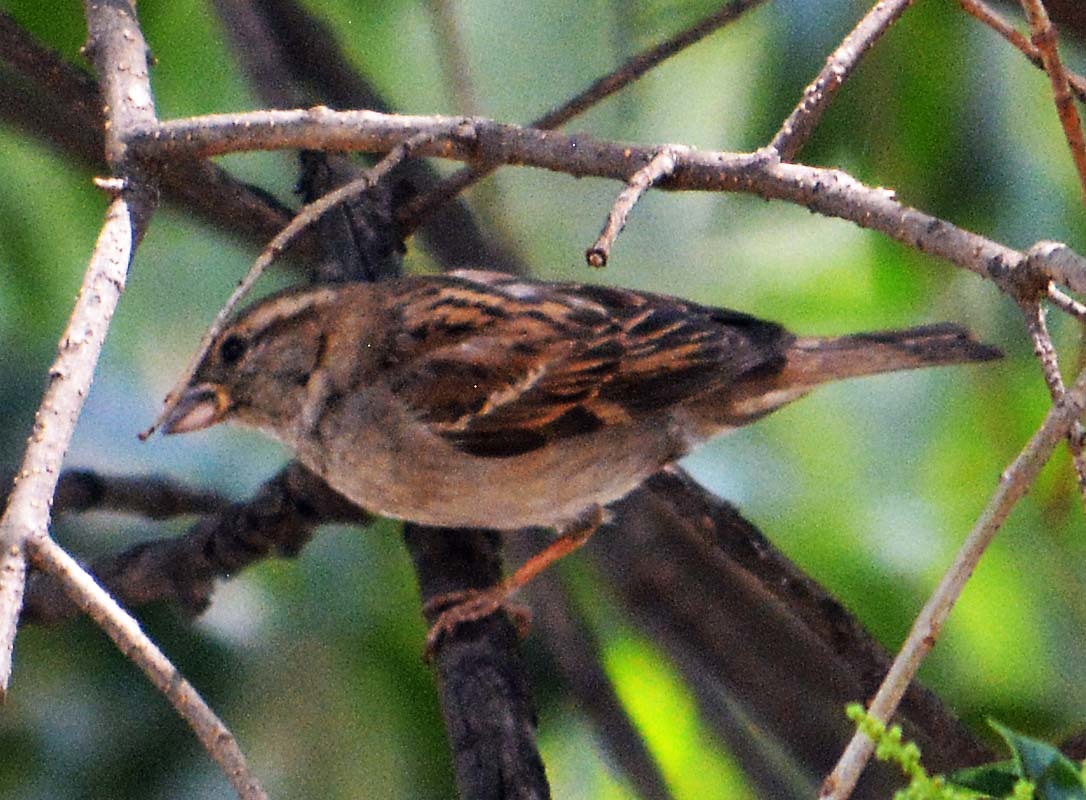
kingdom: Animalia
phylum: Chordata
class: Aves
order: Passeriformes
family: Passeridae
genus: Passer
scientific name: Passer domesticus
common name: House sparrow
